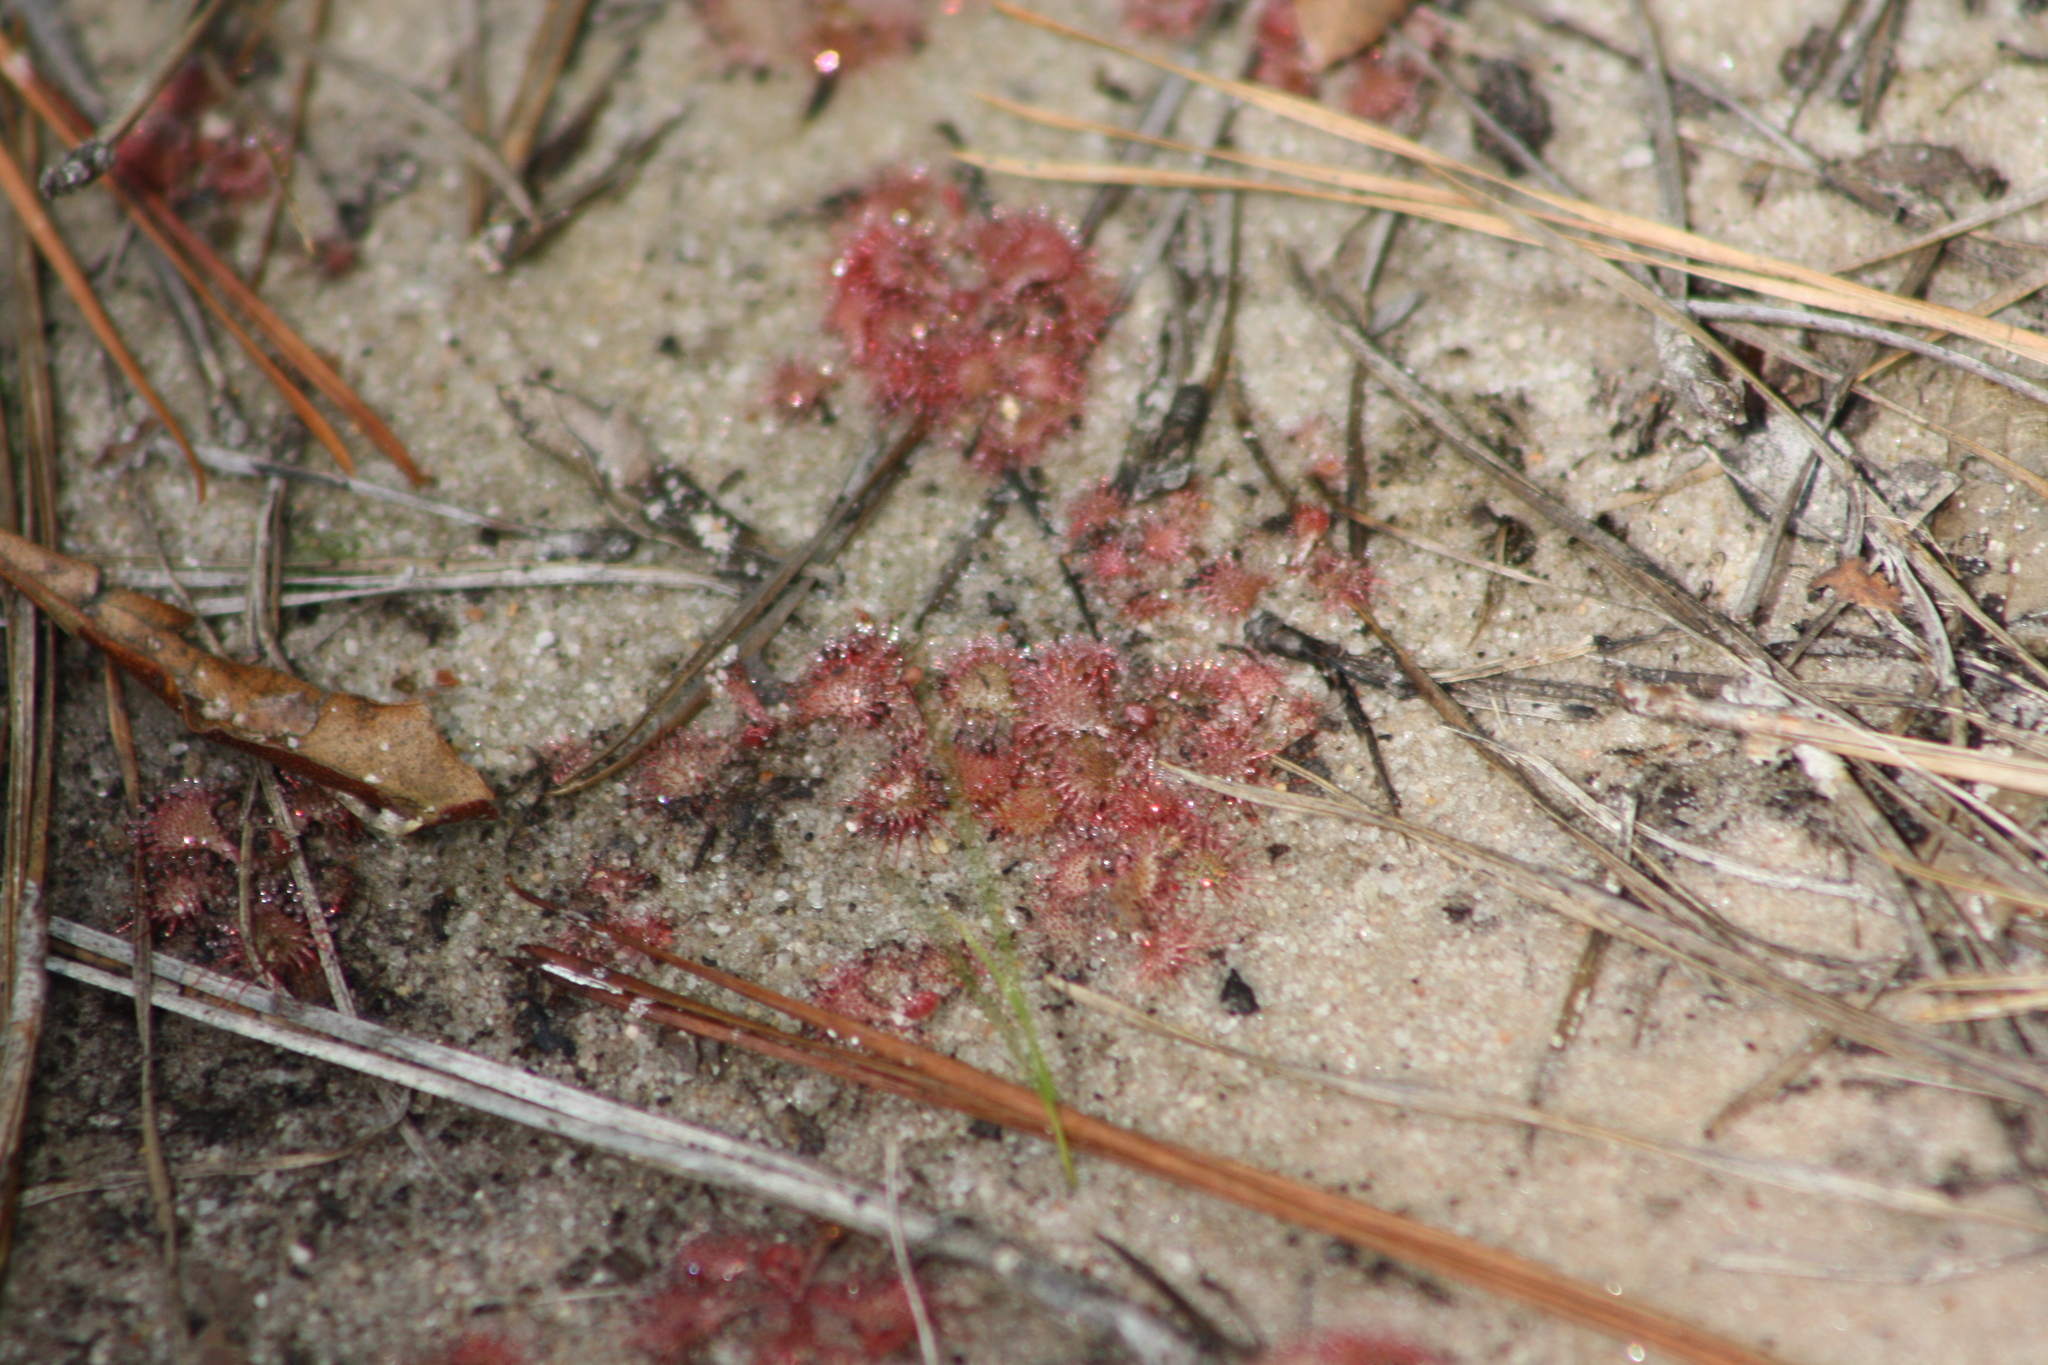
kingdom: Plantae
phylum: Tracheophyta
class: Magnoliopsida
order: Caryophyllales
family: Droseraceae
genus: Drosera
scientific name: Drosera brevifolia
